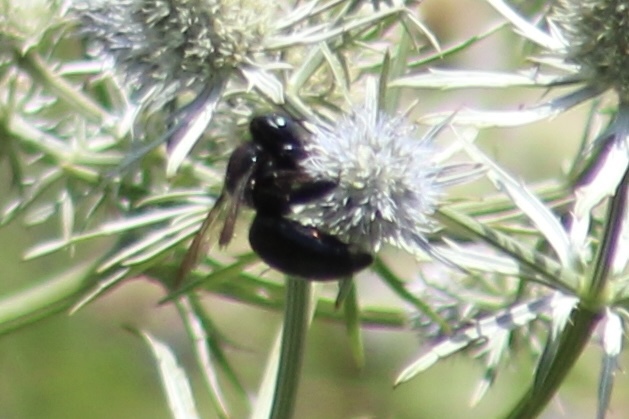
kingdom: Animalia
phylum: Arthropoda
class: Insecta
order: Hymenoptera
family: Apidae
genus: Xylocopa
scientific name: Xylocopa micans
